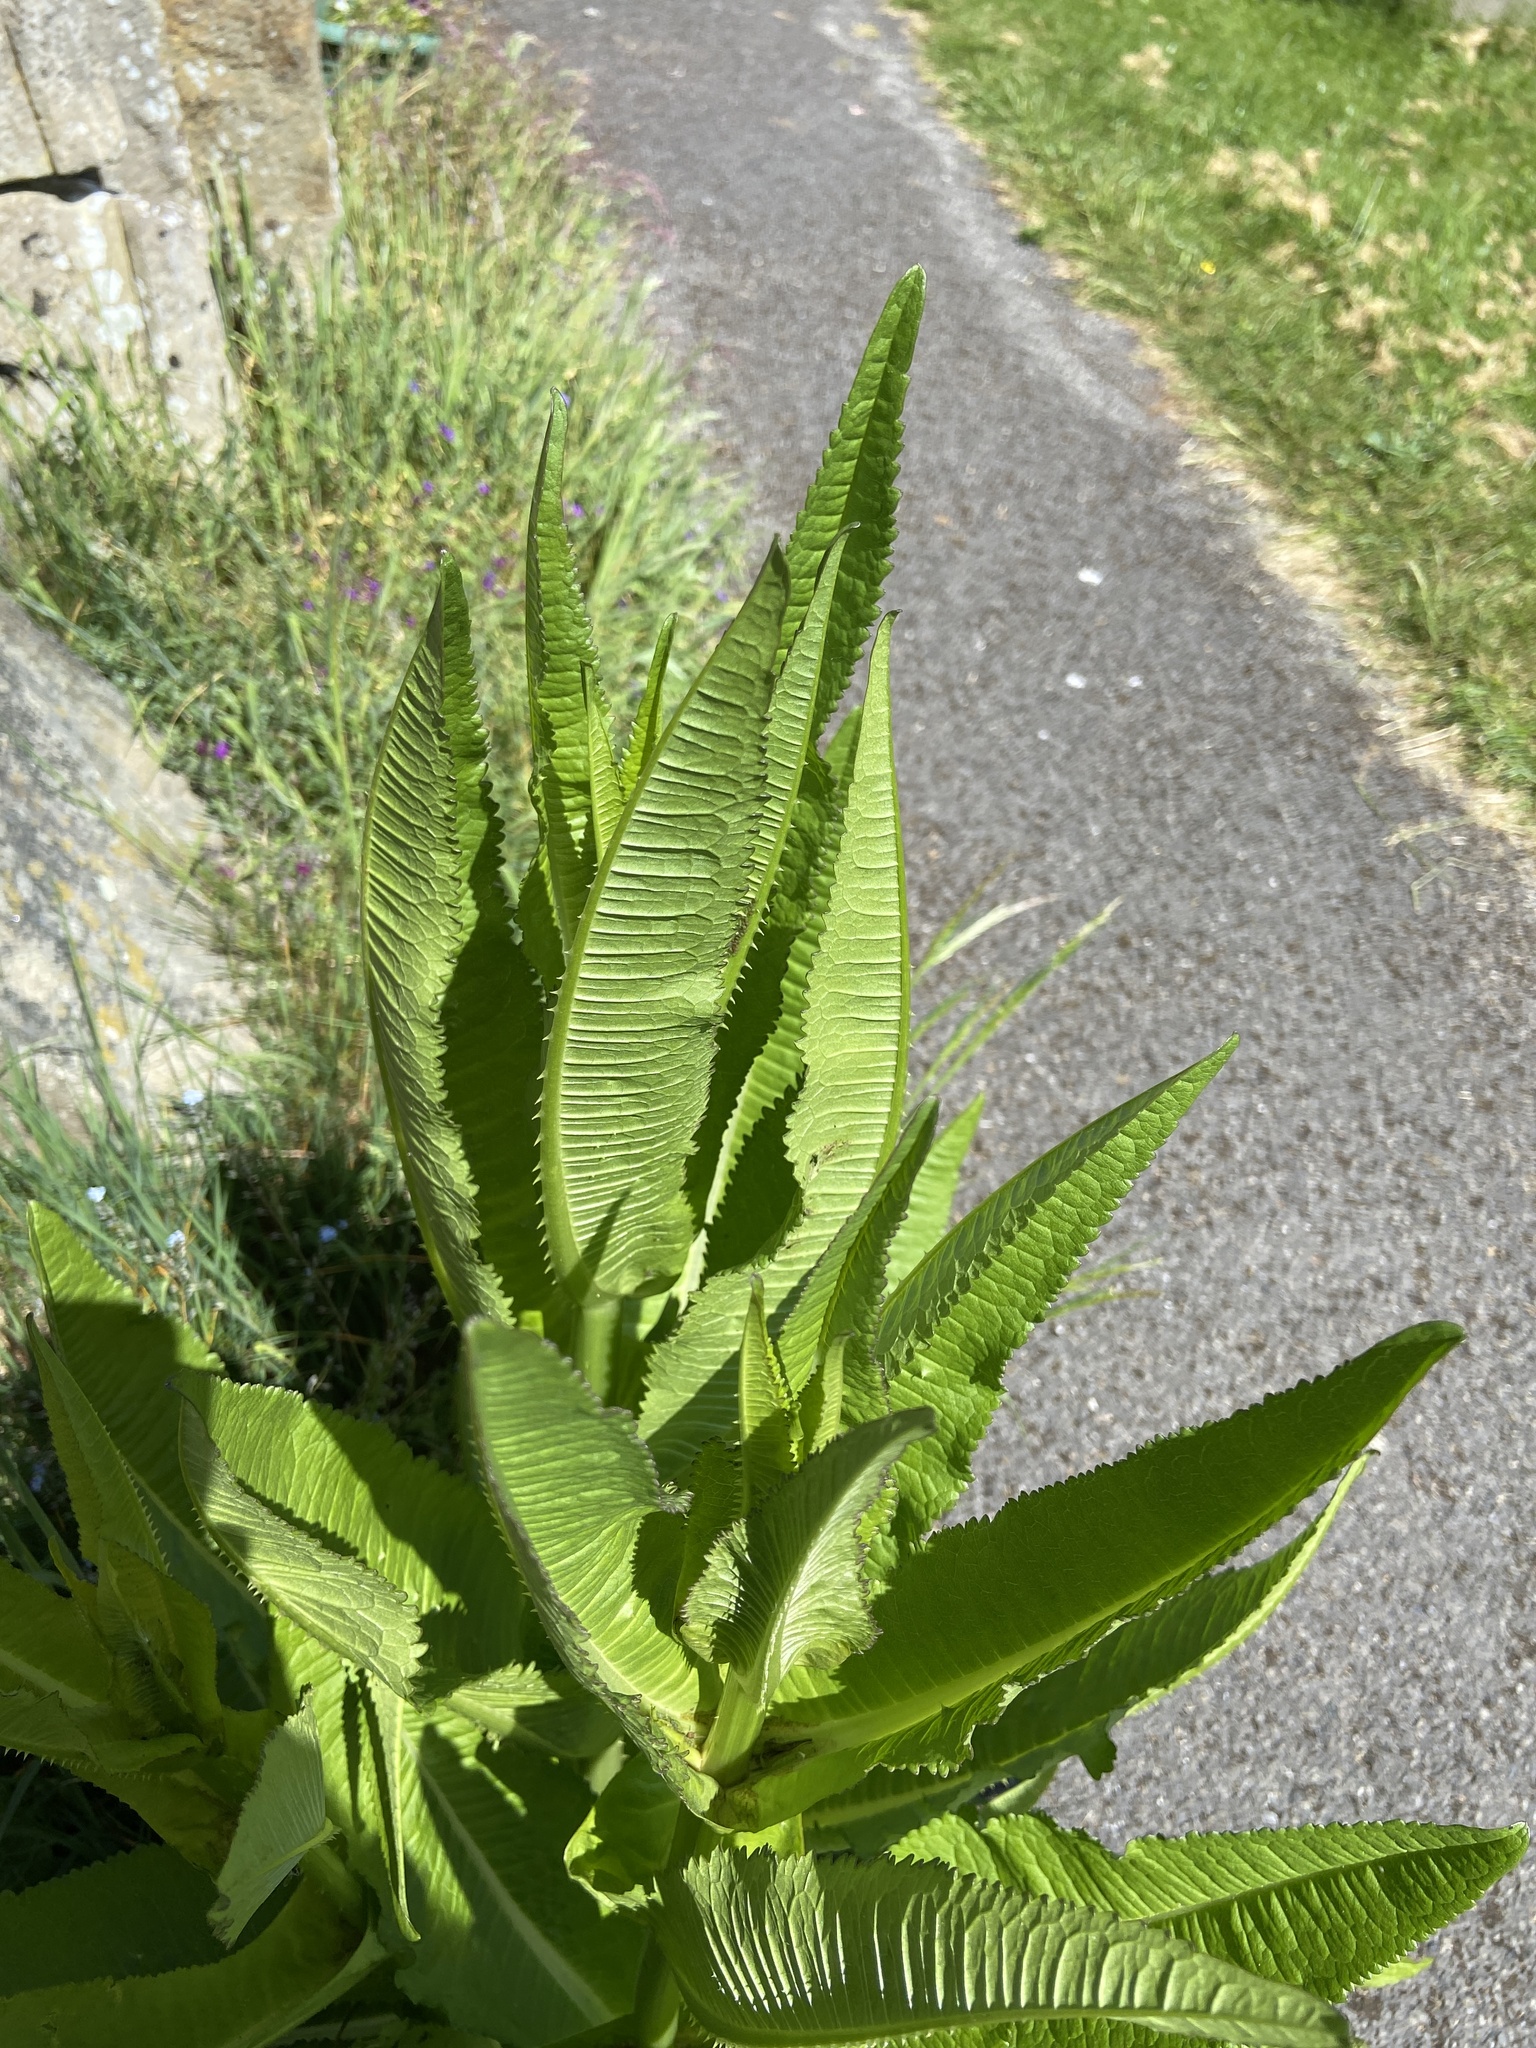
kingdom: Plantae
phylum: Tracheophyta
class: Magnoliopsida
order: Dipsacales
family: Caprifoliaceae
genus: Dipsacus
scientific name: Dipsacus fullonum
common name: Teasel
